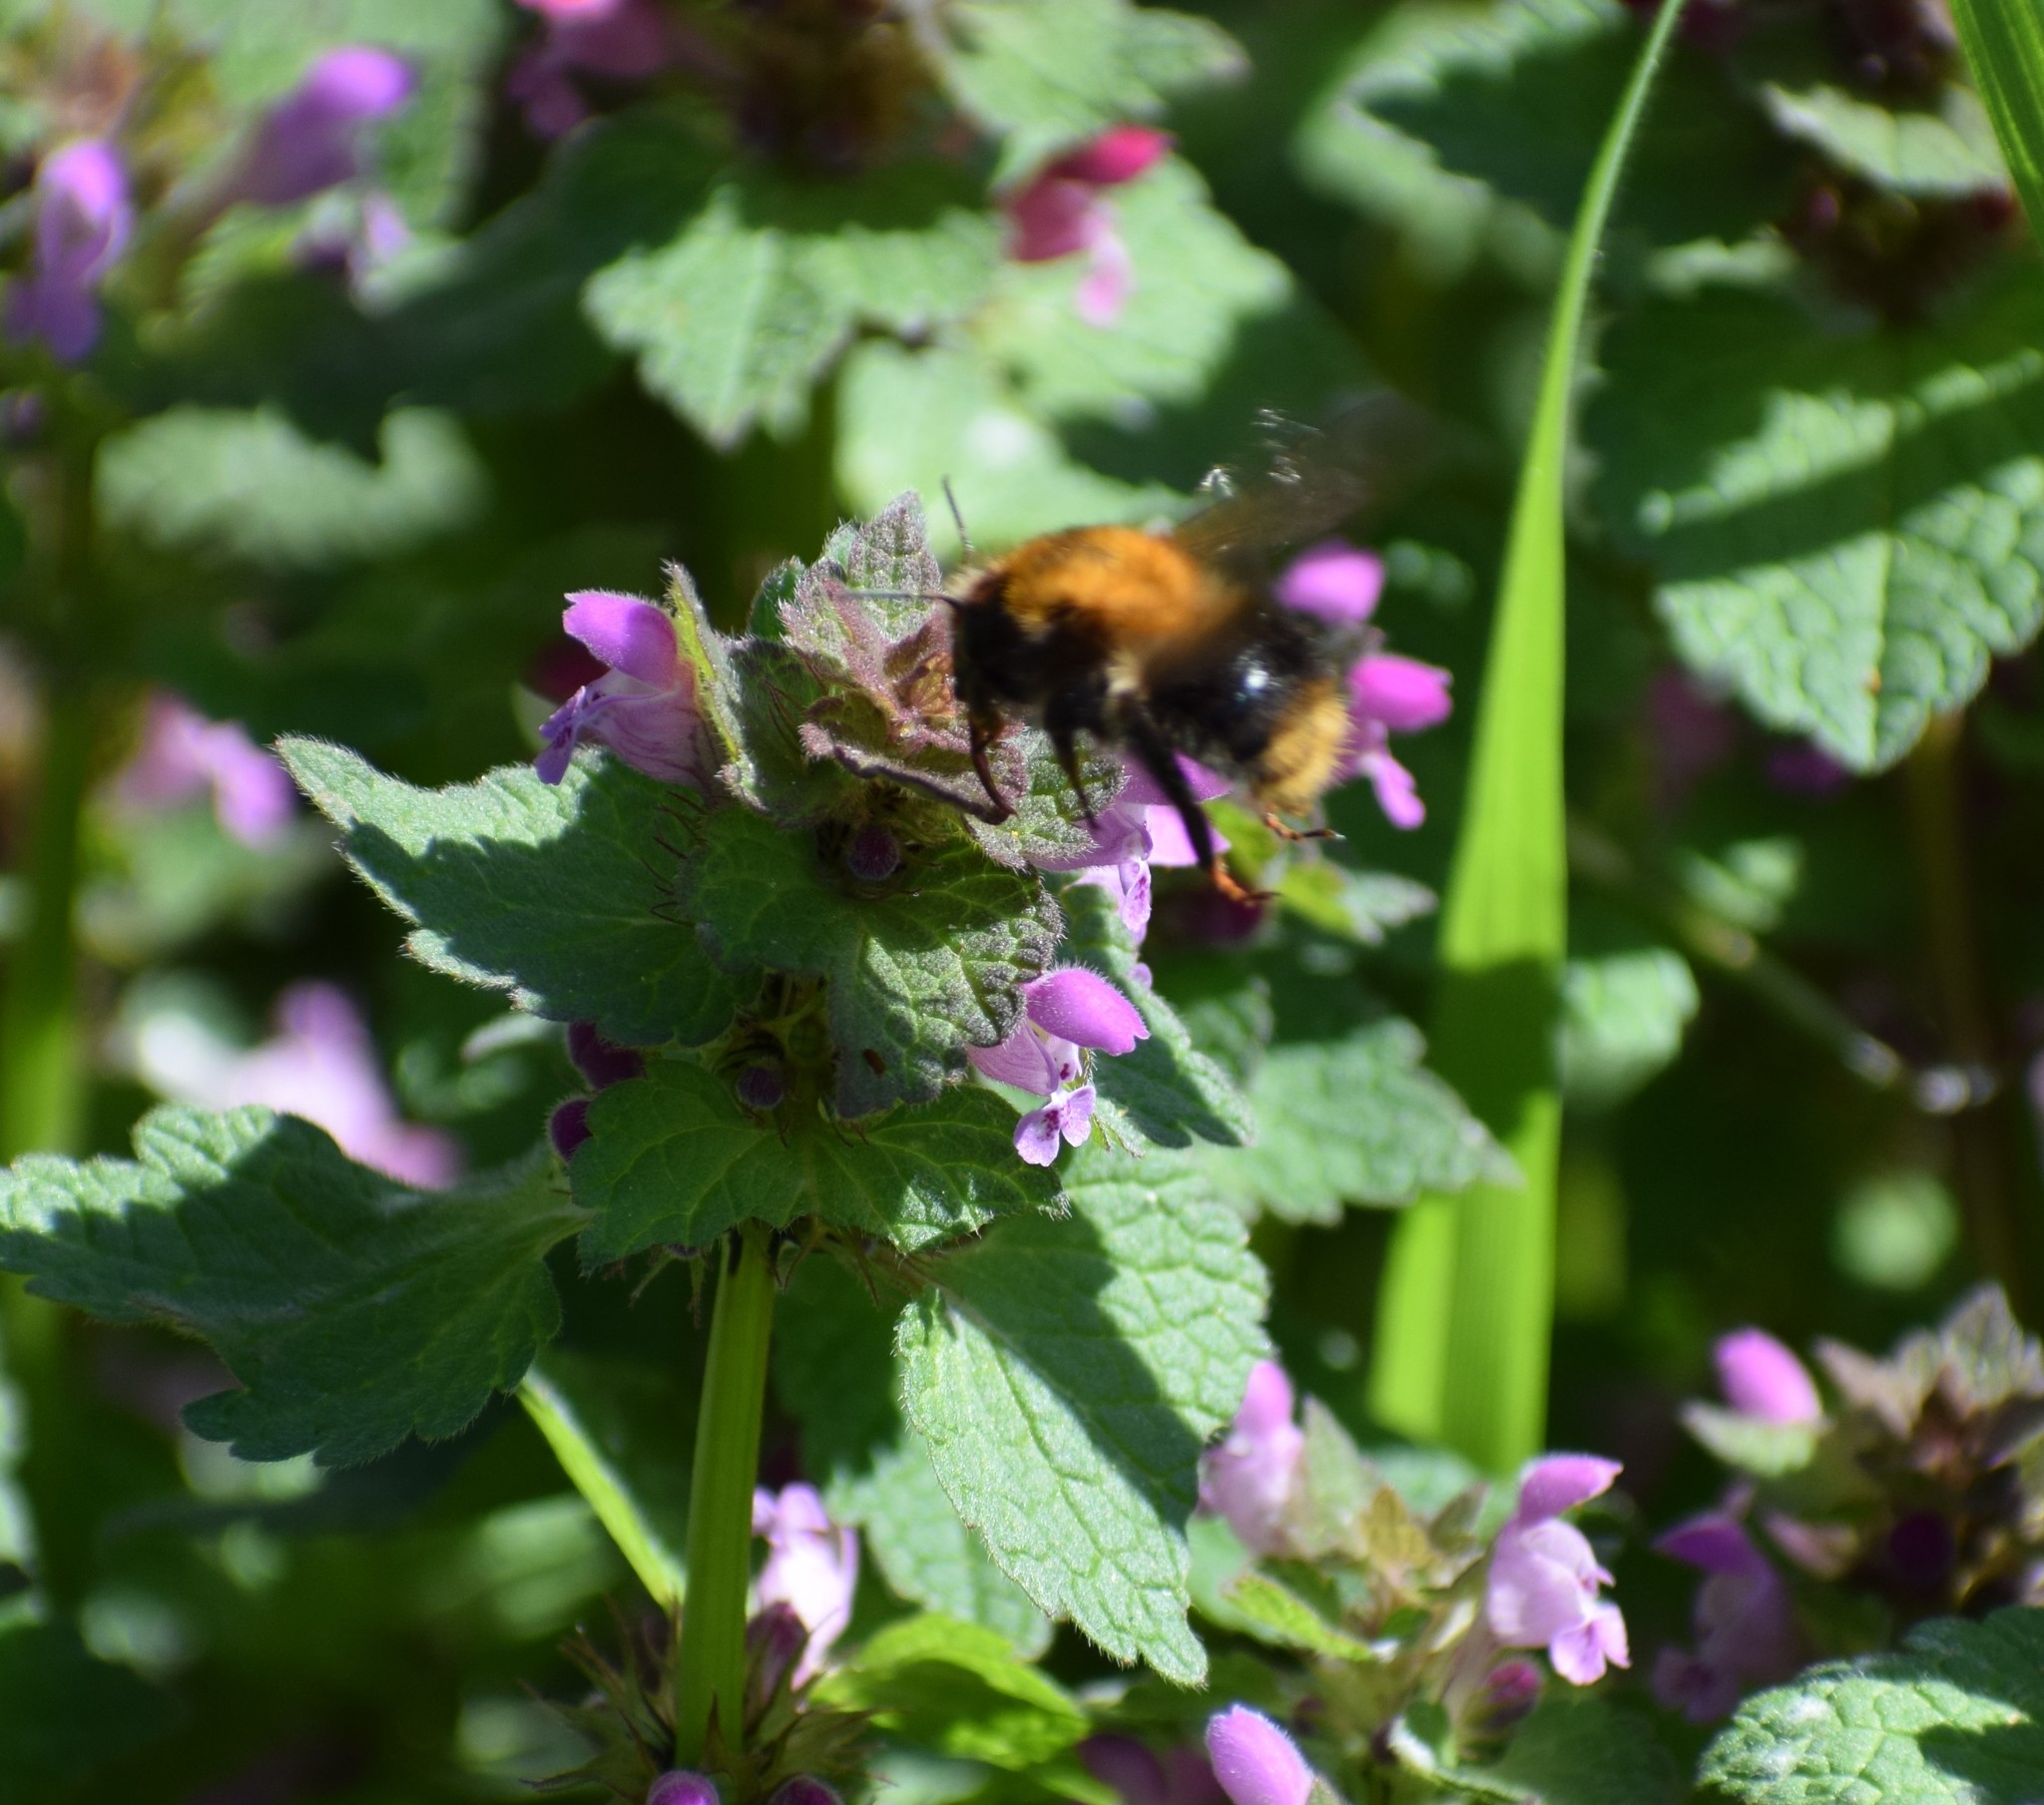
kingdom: Plantae
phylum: Tracheophyta
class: Magnoliopsida
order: Lamiales
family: Lamiaceae
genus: Lamium
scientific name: Lamium purpureum
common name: Red dead-nettle
